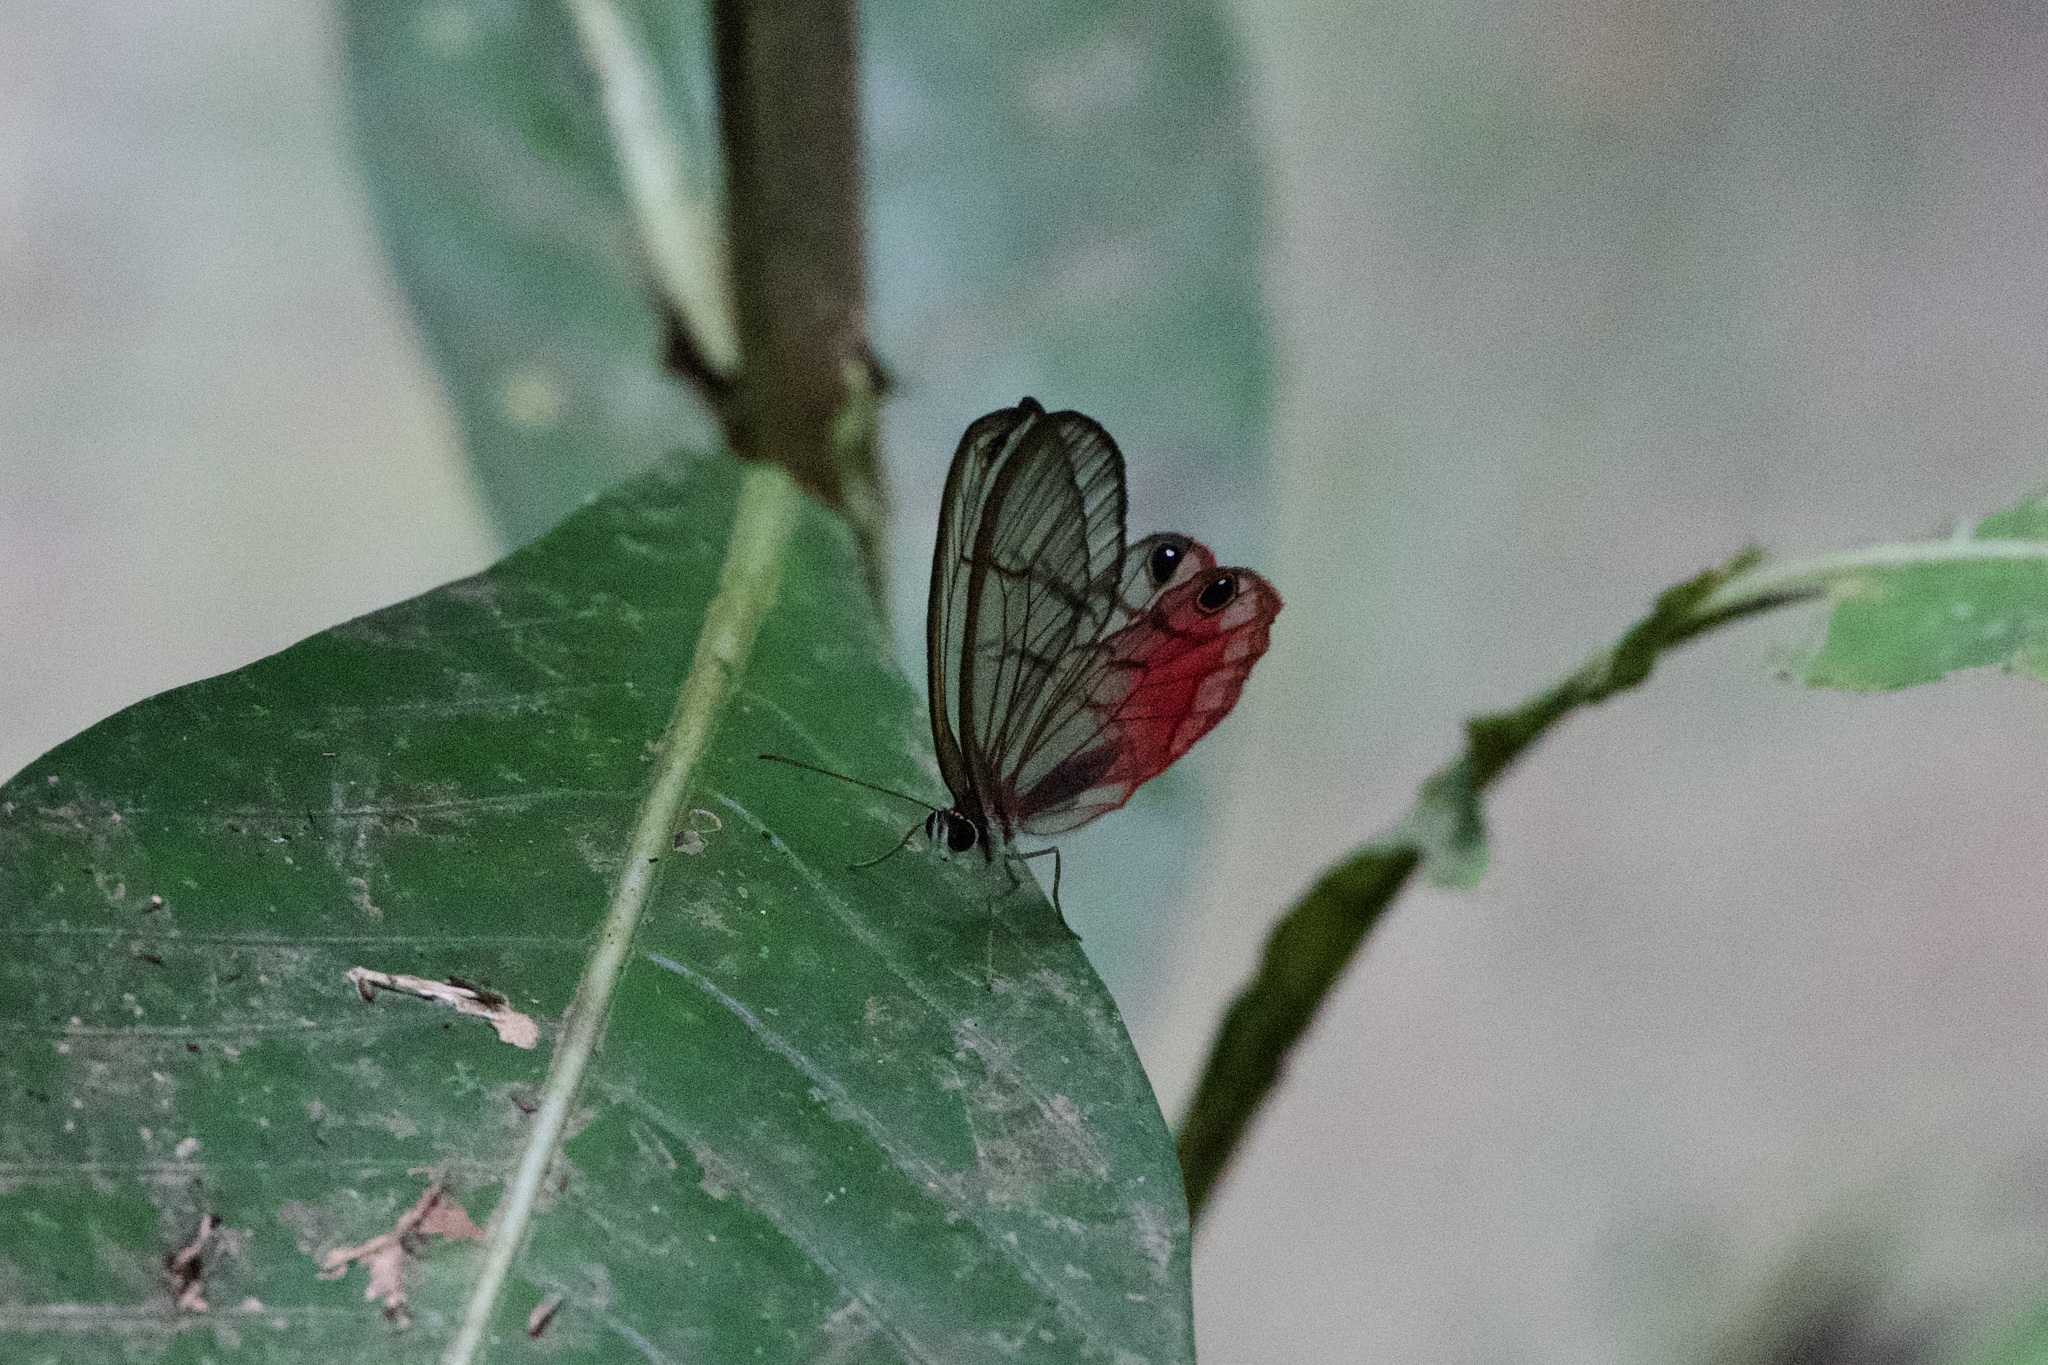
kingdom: Animalia
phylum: Arthropoda
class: Insecta
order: Lepidoptera
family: Nymphalidae
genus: Cithaerias
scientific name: Cithaerias pireta
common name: Rusted clearwing-satyr
